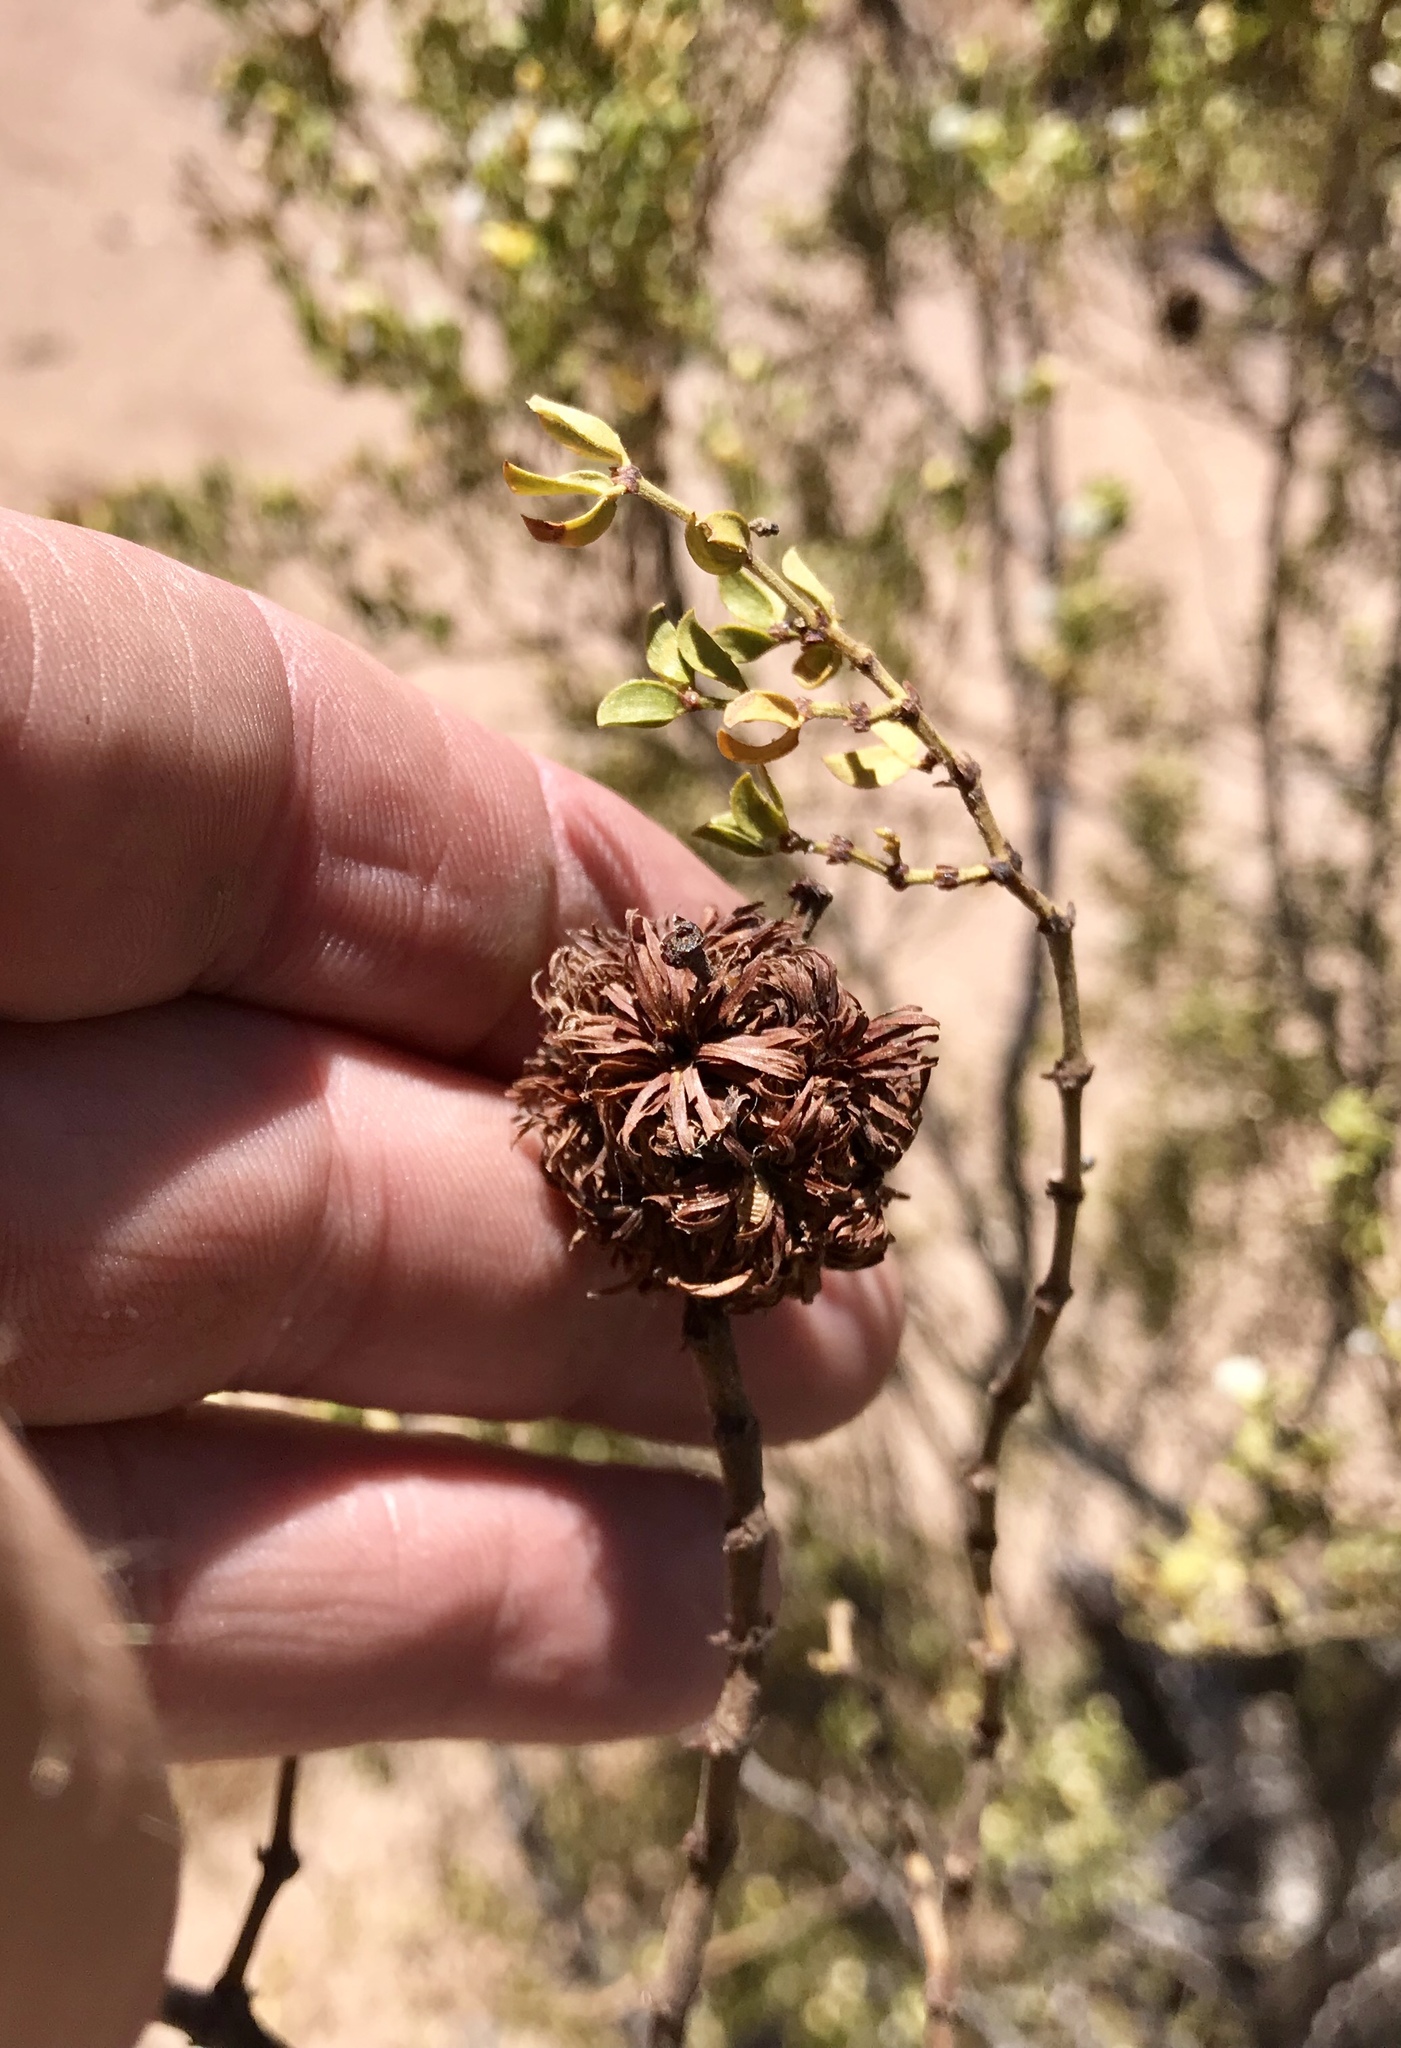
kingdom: Animalia
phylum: Arthropoda
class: Insecta
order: Diptera
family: Cecidomyiidae
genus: Asphondylia
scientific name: Asphondylia auripila
